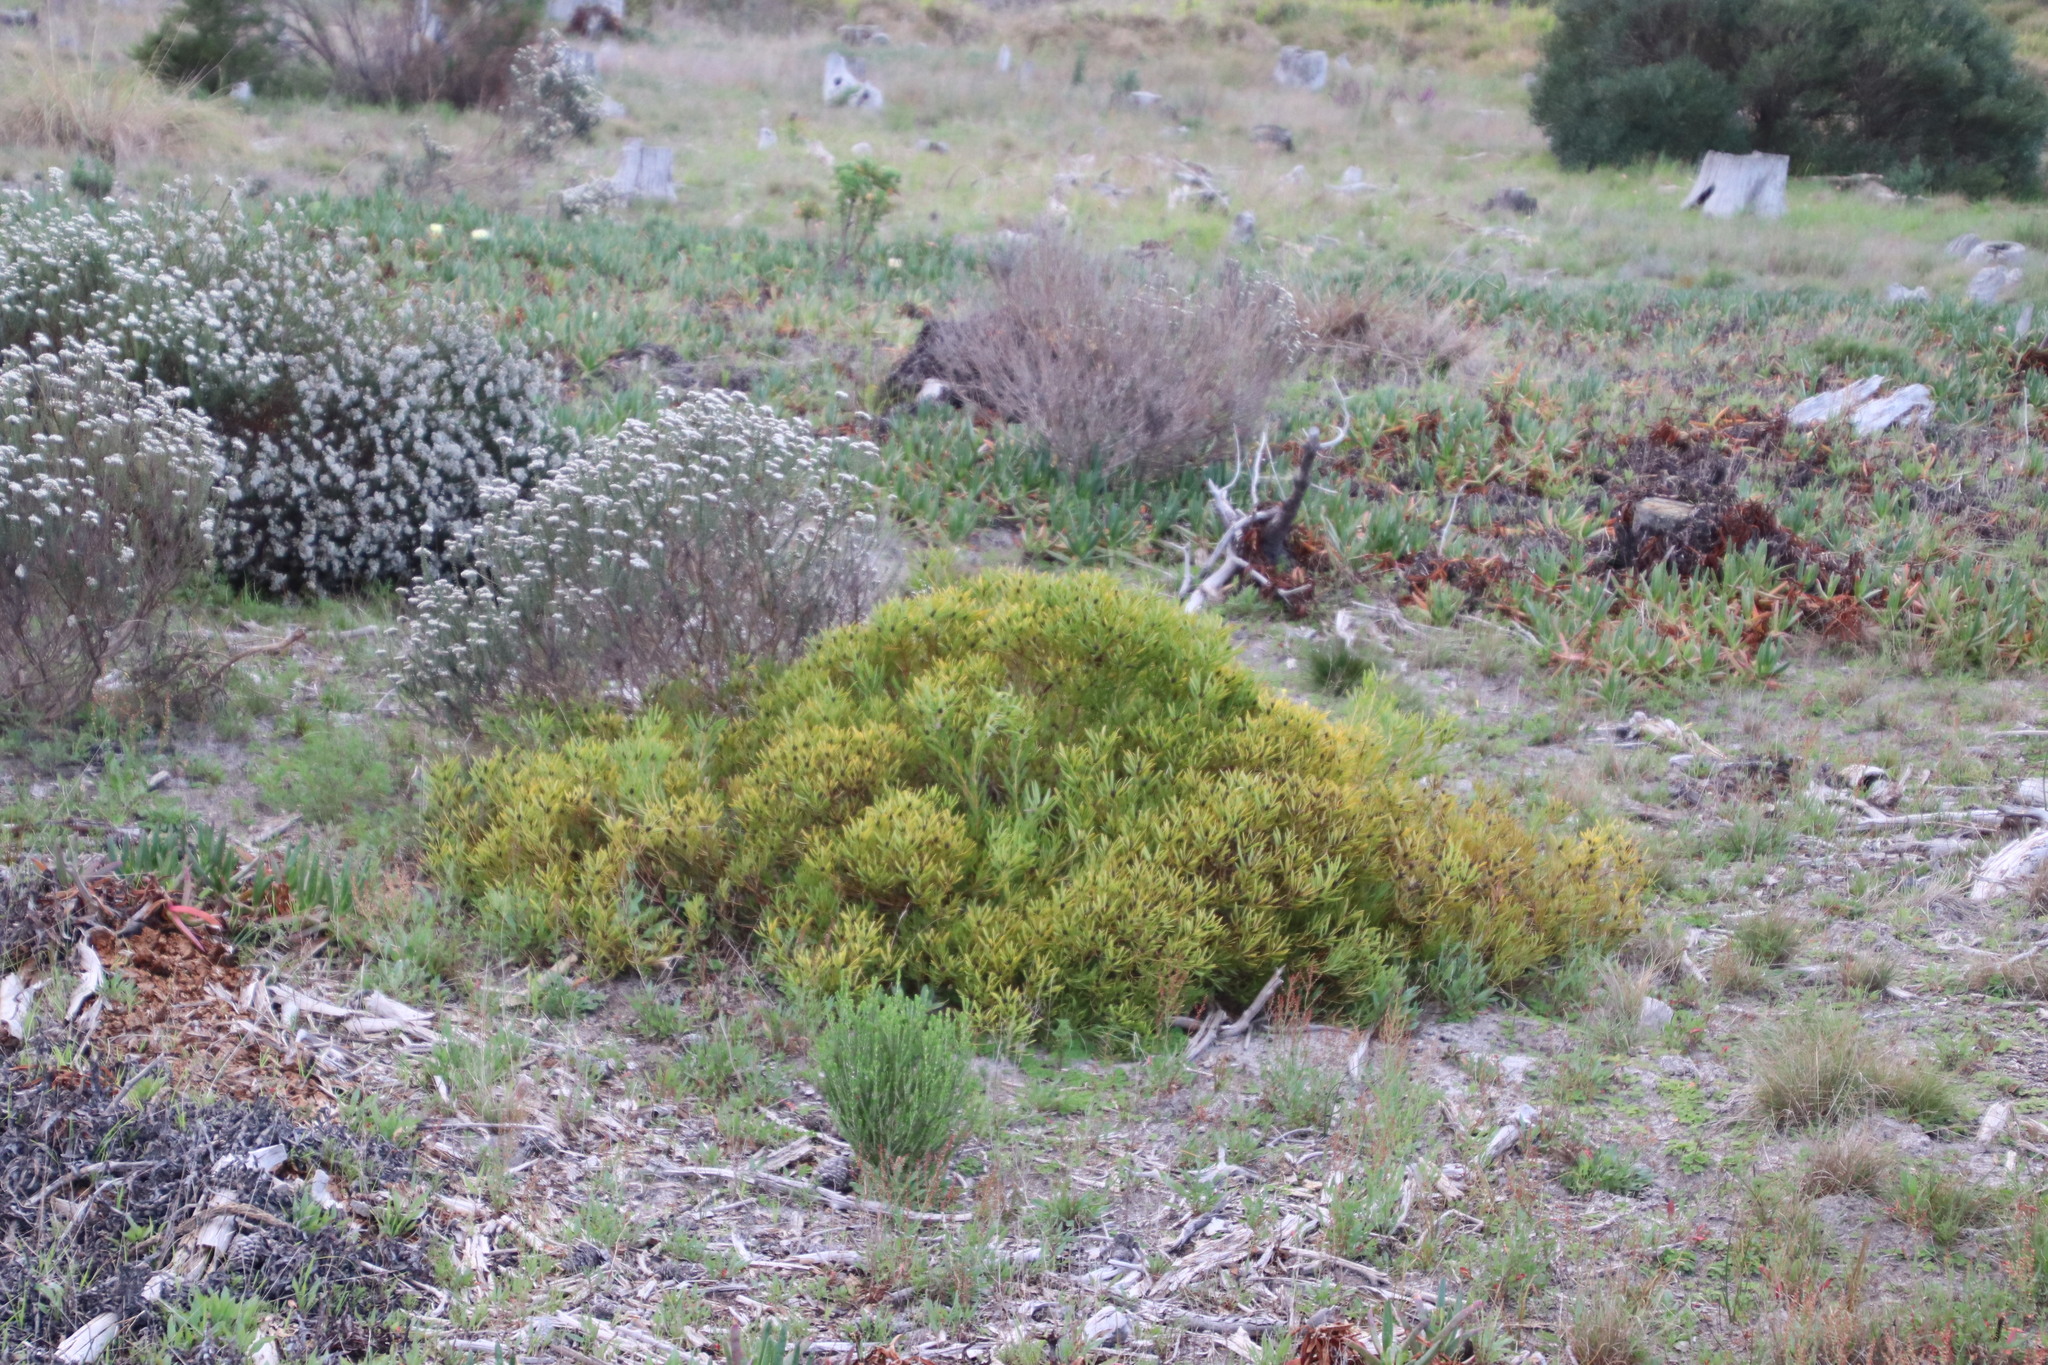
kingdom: Plantae
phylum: Tracheophyta
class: Magnoliopsida
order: Proteales
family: Proteaceae
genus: Leucadendron
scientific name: Leucadendron salignum
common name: Common sunshine conebush
